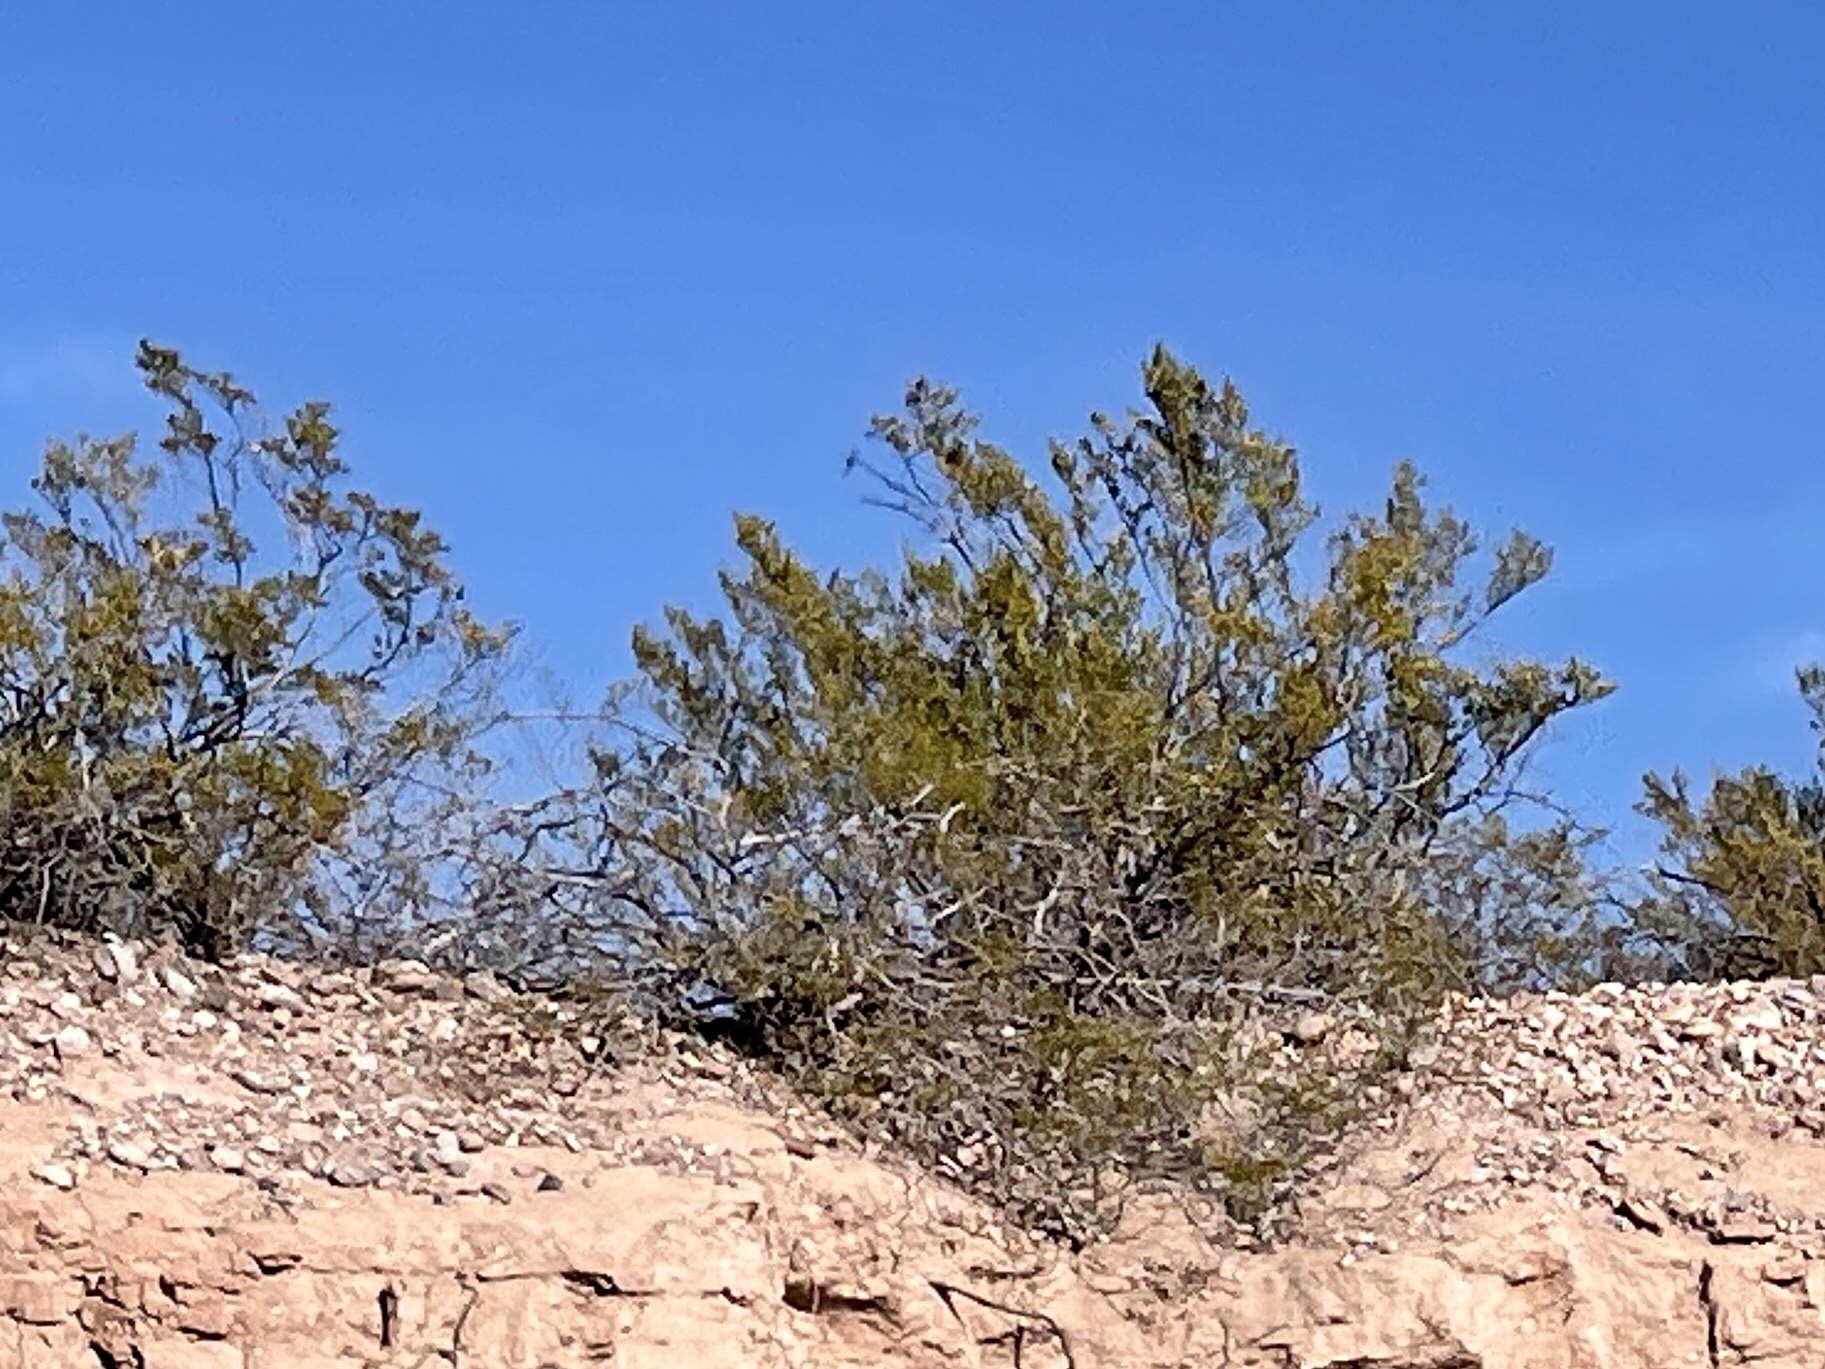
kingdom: Plantae
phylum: Tracheophyta
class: Magnoliopsida
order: Zygophyllales
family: Zygophyllaceae
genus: Larrea
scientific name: Larrea tridentata
